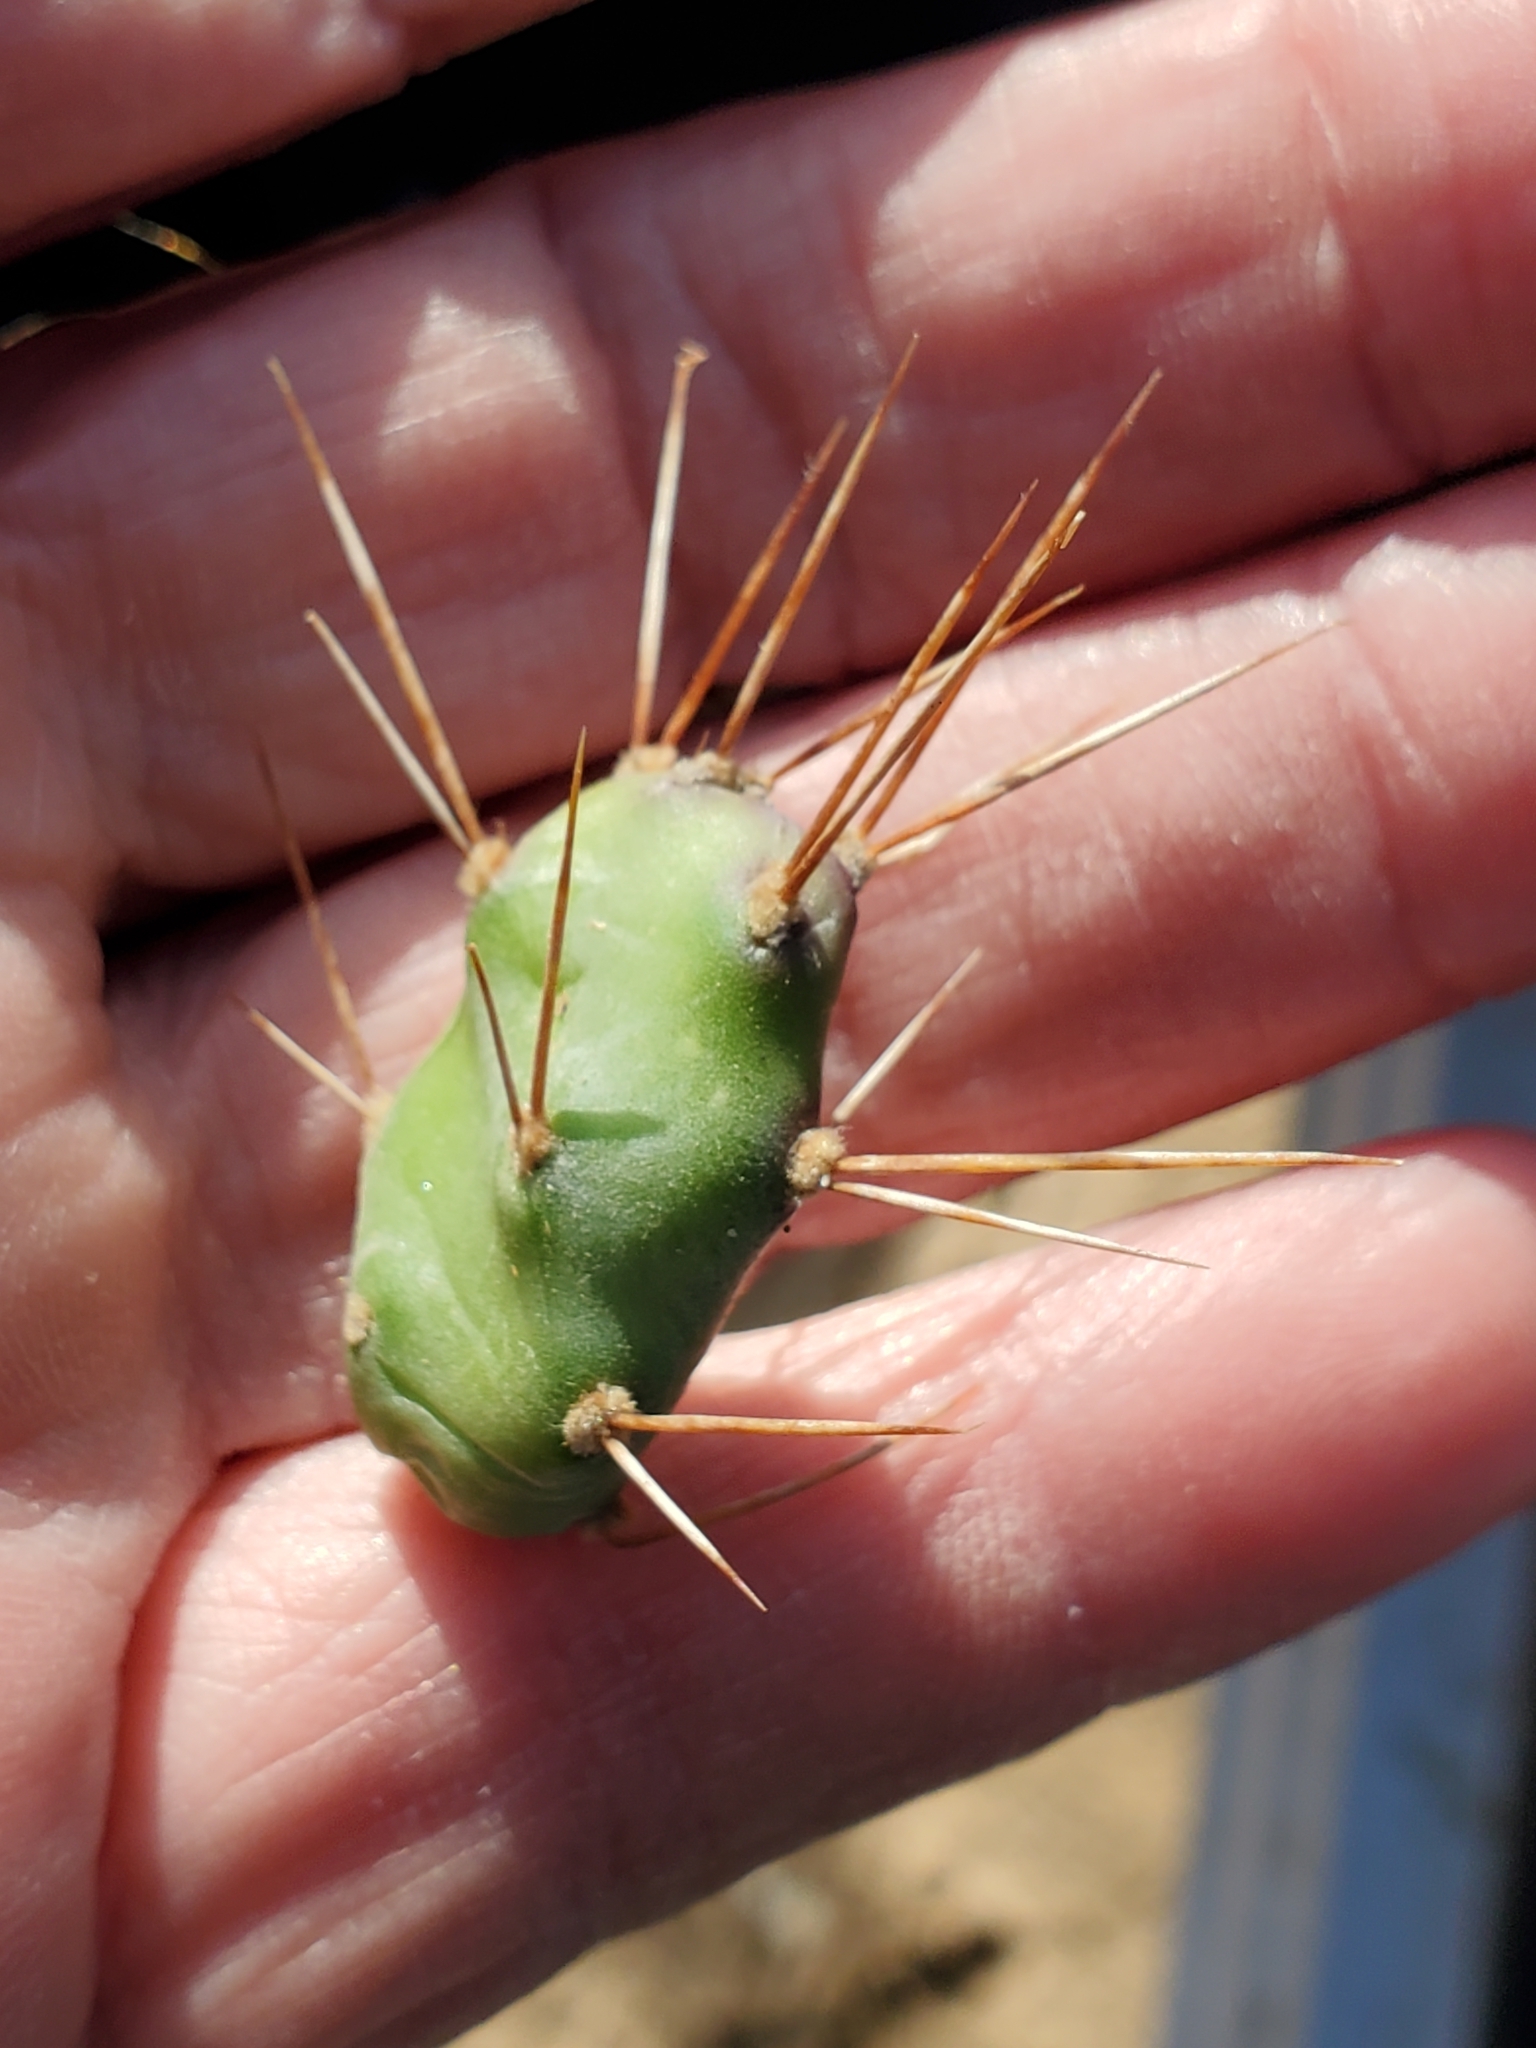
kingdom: Plantae
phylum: Tracheophyta
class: Magnoliopsida
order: Caryophyllales
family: Cactaceae
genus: Opuntia
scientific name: Opuntia drummondii
